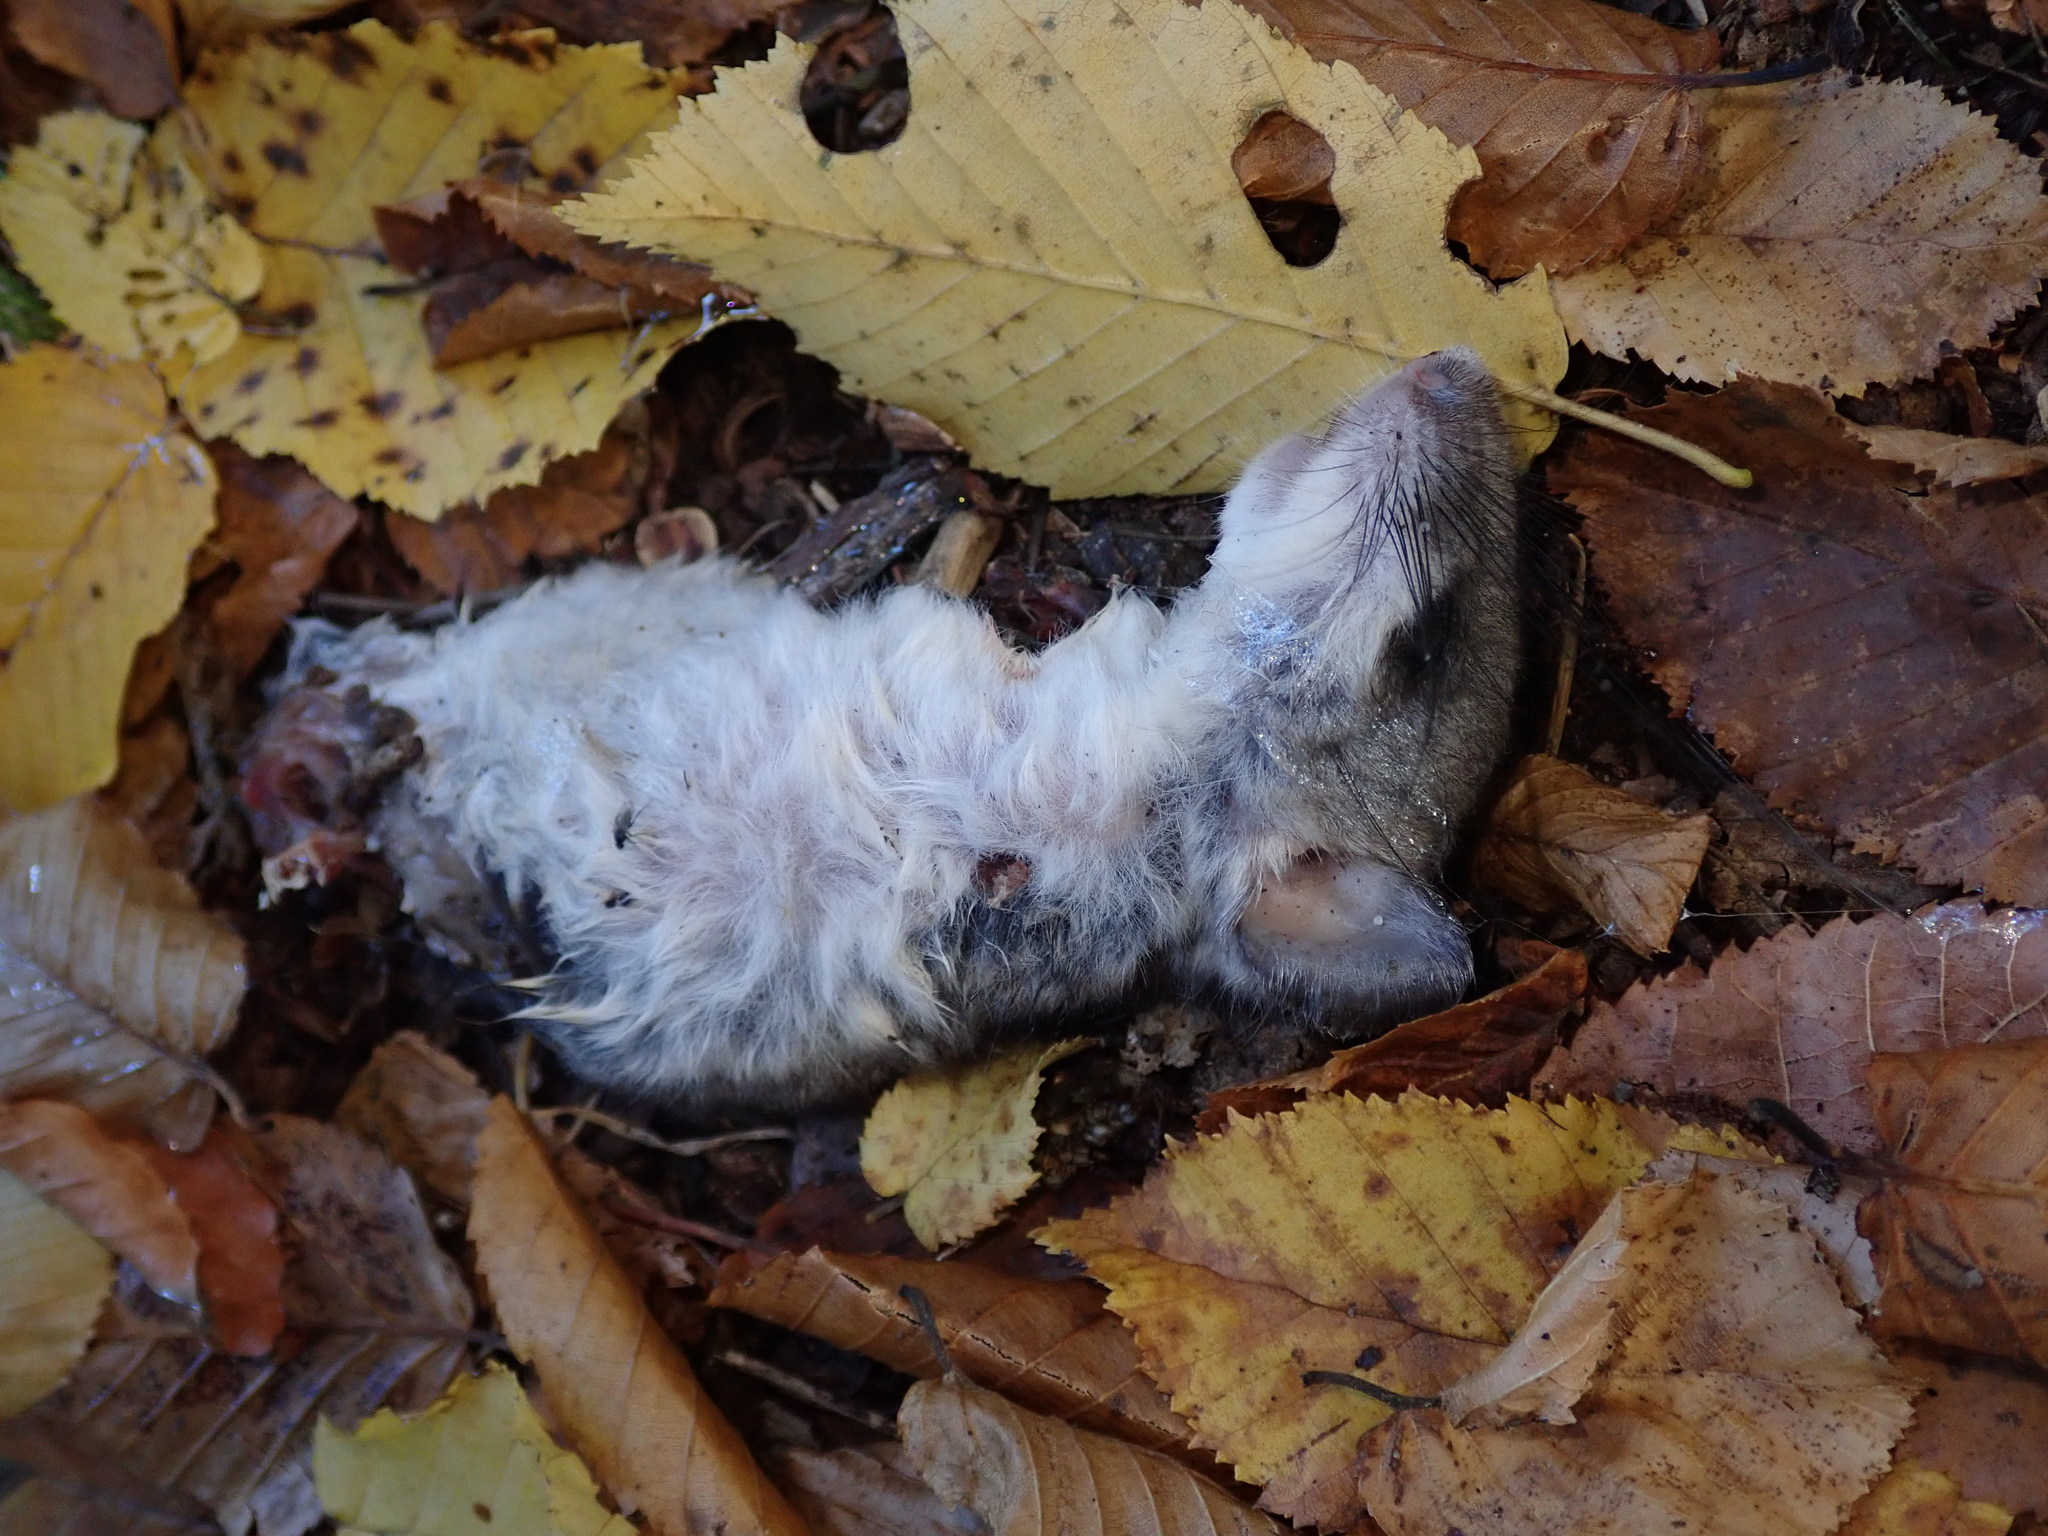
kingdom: Animalia
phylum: Chordata
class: Mammalia
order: Rodentia
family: Gliridae
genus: Glis
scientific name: Glis glis
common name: Fat dormouse
